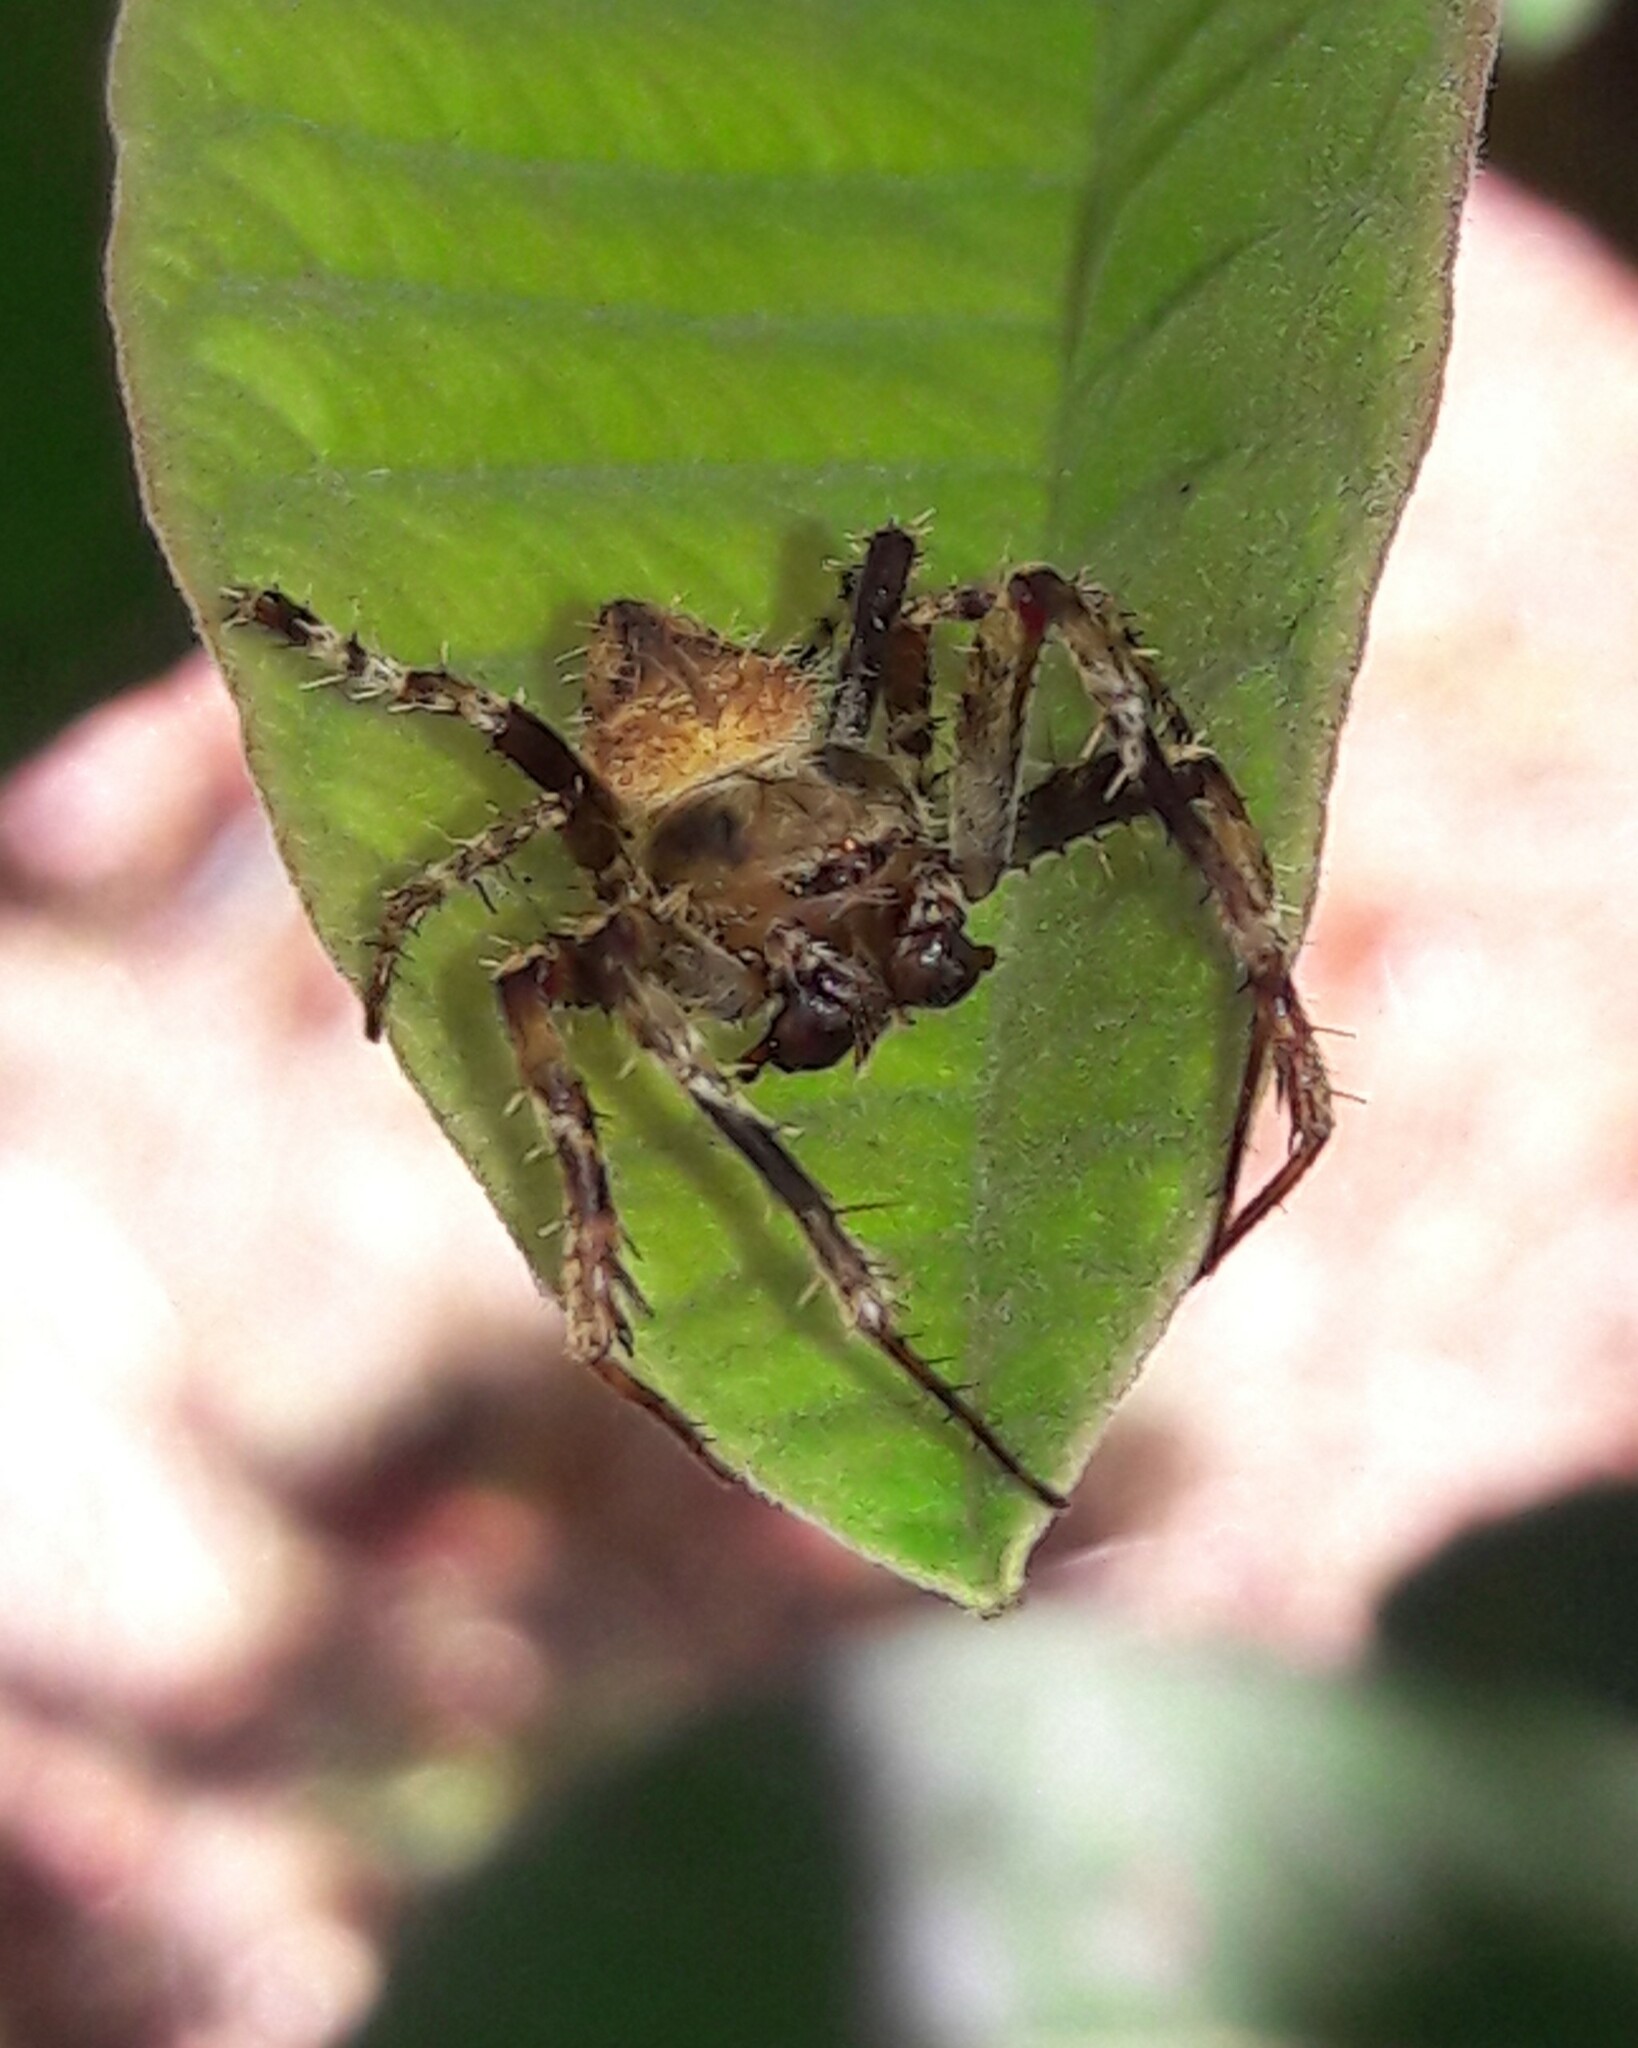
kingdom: Animalia
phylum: Arthropoda
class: Arachnida
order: Araneae
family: Araneidae
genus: Eriophora
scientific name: Eriophora edax
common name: Orb weavers
